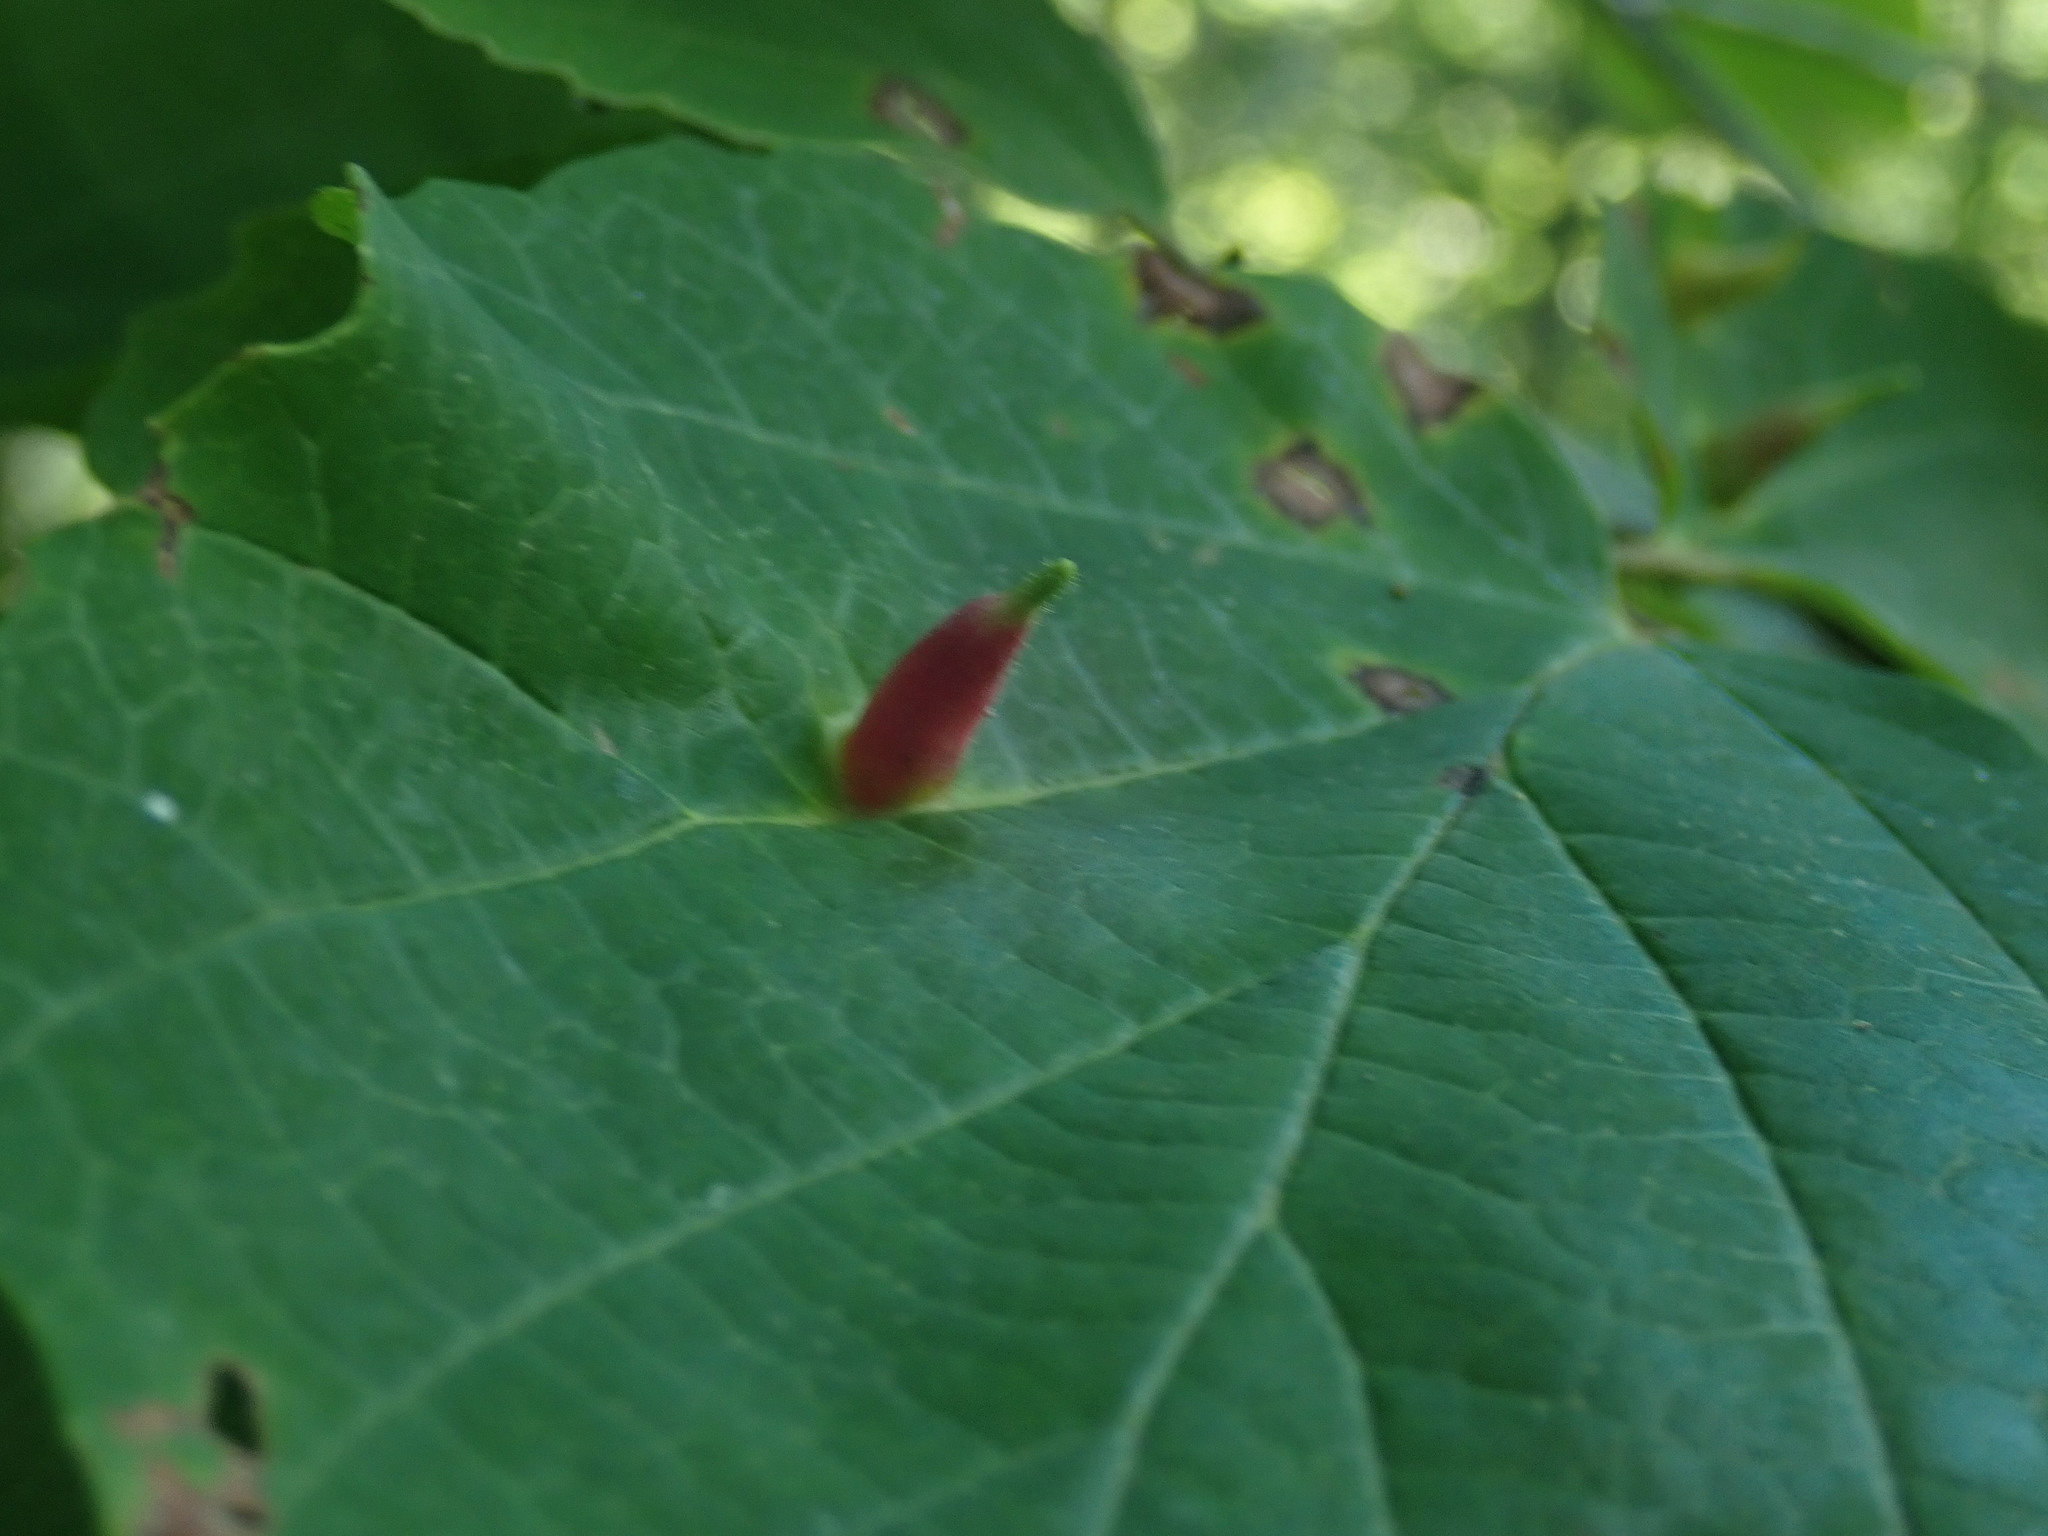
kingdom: Animalia
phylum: Arthropoda
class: Insecta
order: Hemiptera
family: Aphididae
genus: Hormaphis
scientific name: Hormaphis hamamelidis
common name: Witch-hazel cone gall aphid
